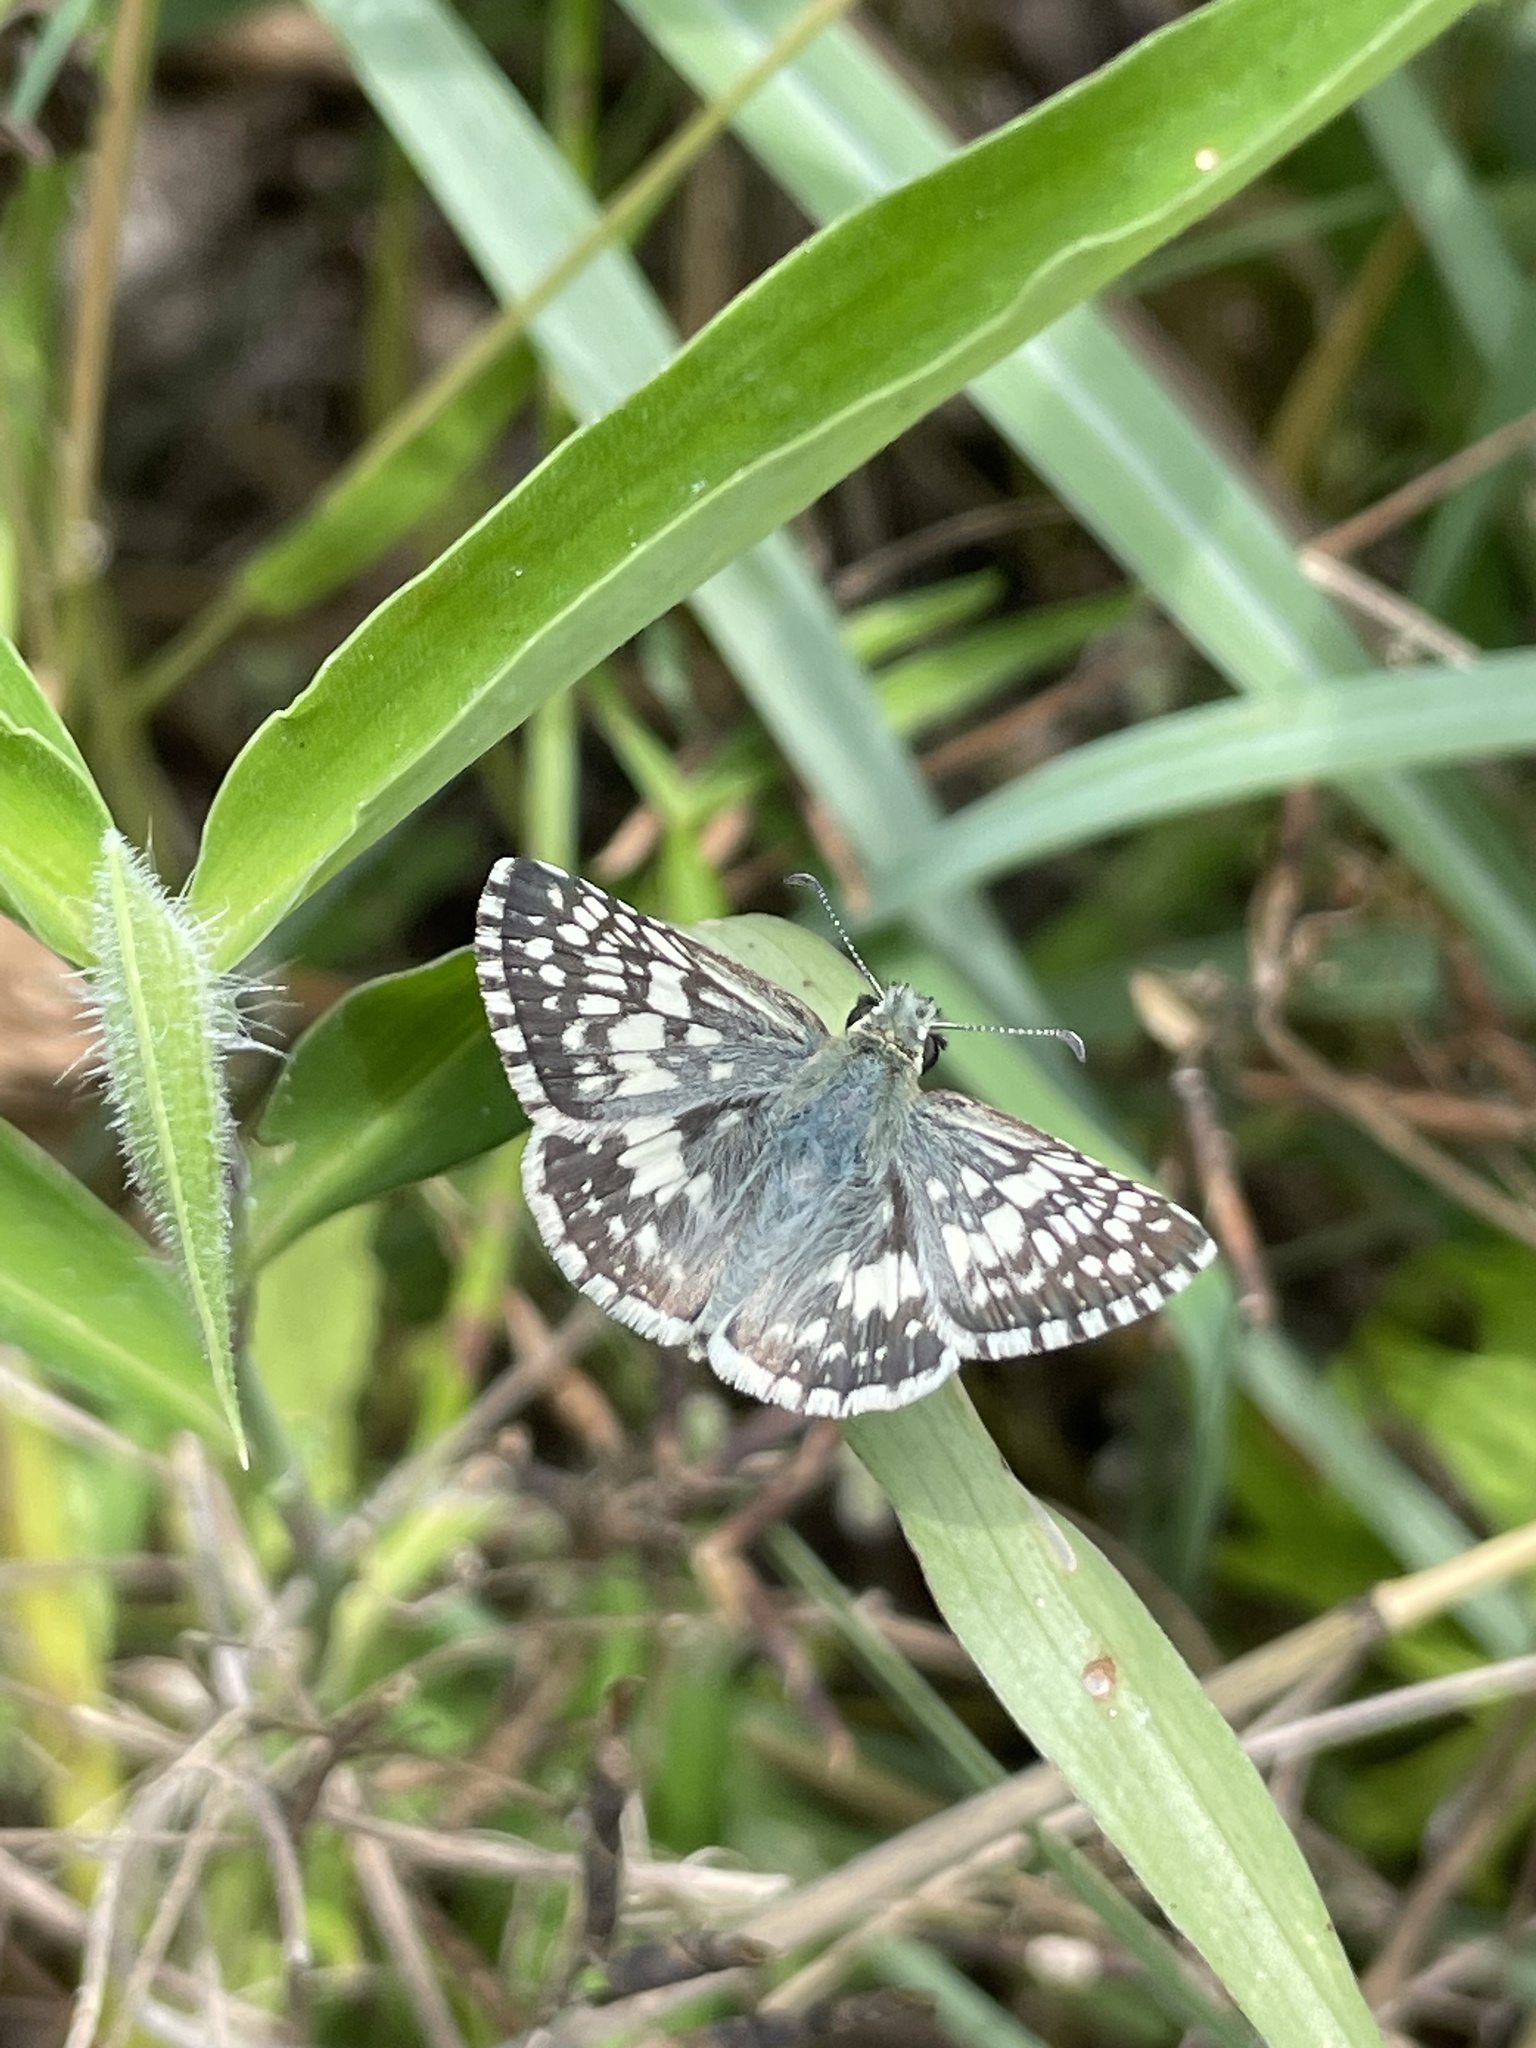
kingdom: Animalia
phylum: Arthropoda
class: Insecta
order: Lepidoptera
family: Hesperiidae
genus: Burnsius
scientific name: Burnsius
